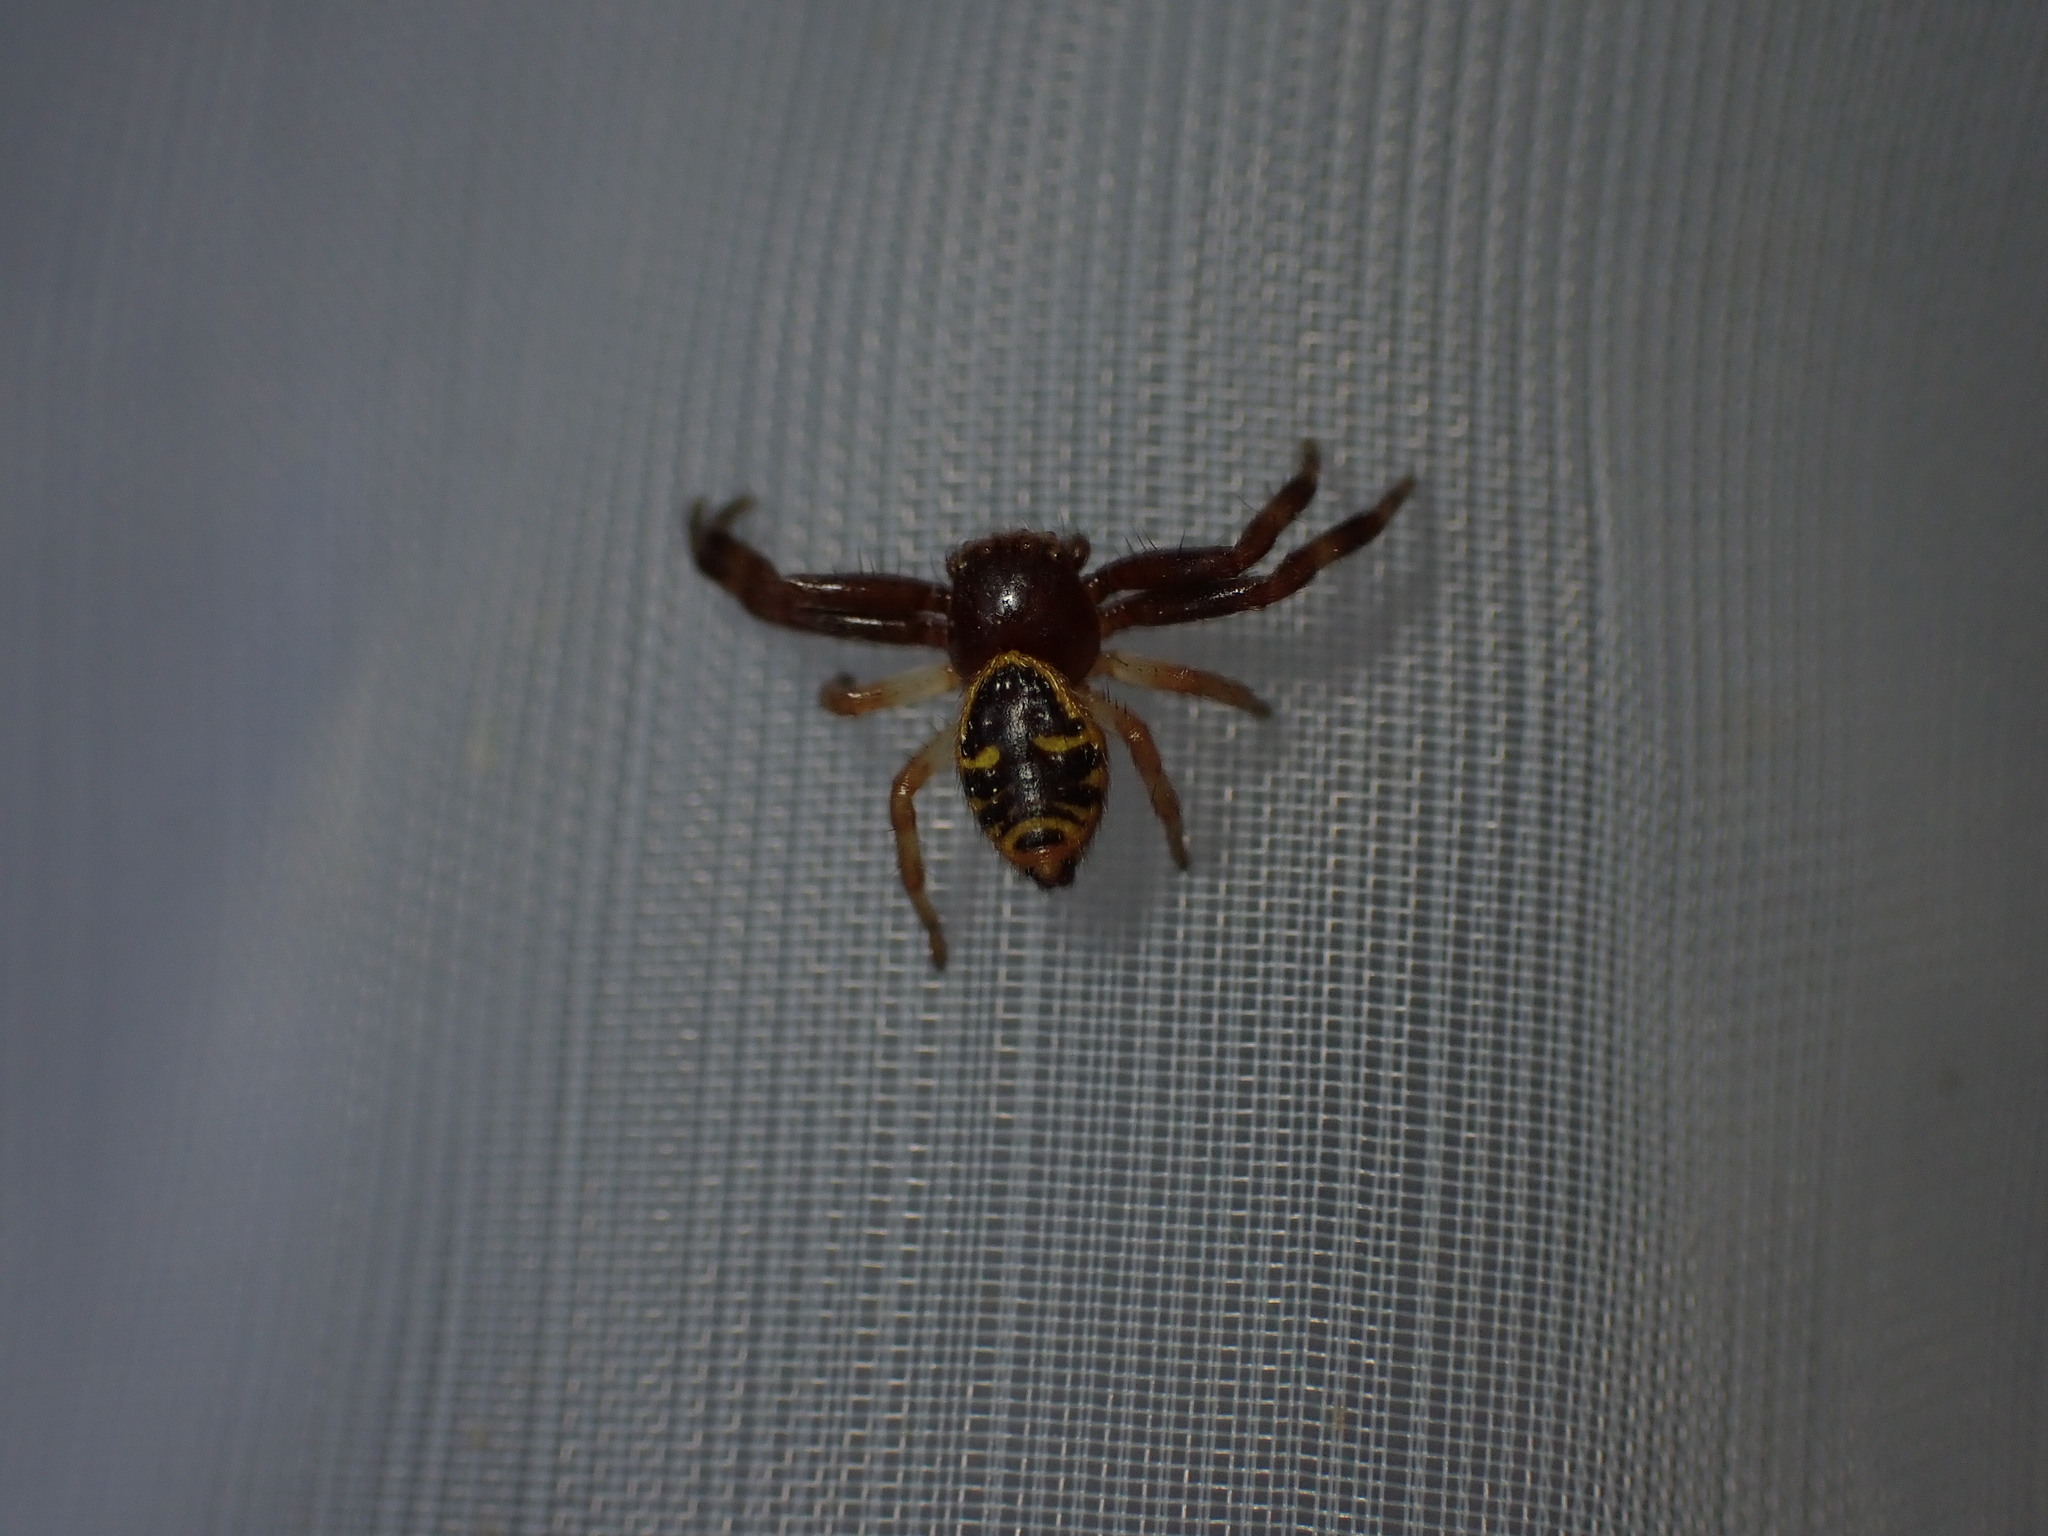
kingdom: Animalia
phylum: Arthropoda
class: Arachnida
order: Araneae
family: Thomisidae
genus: Synema
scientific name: Synema globosum
